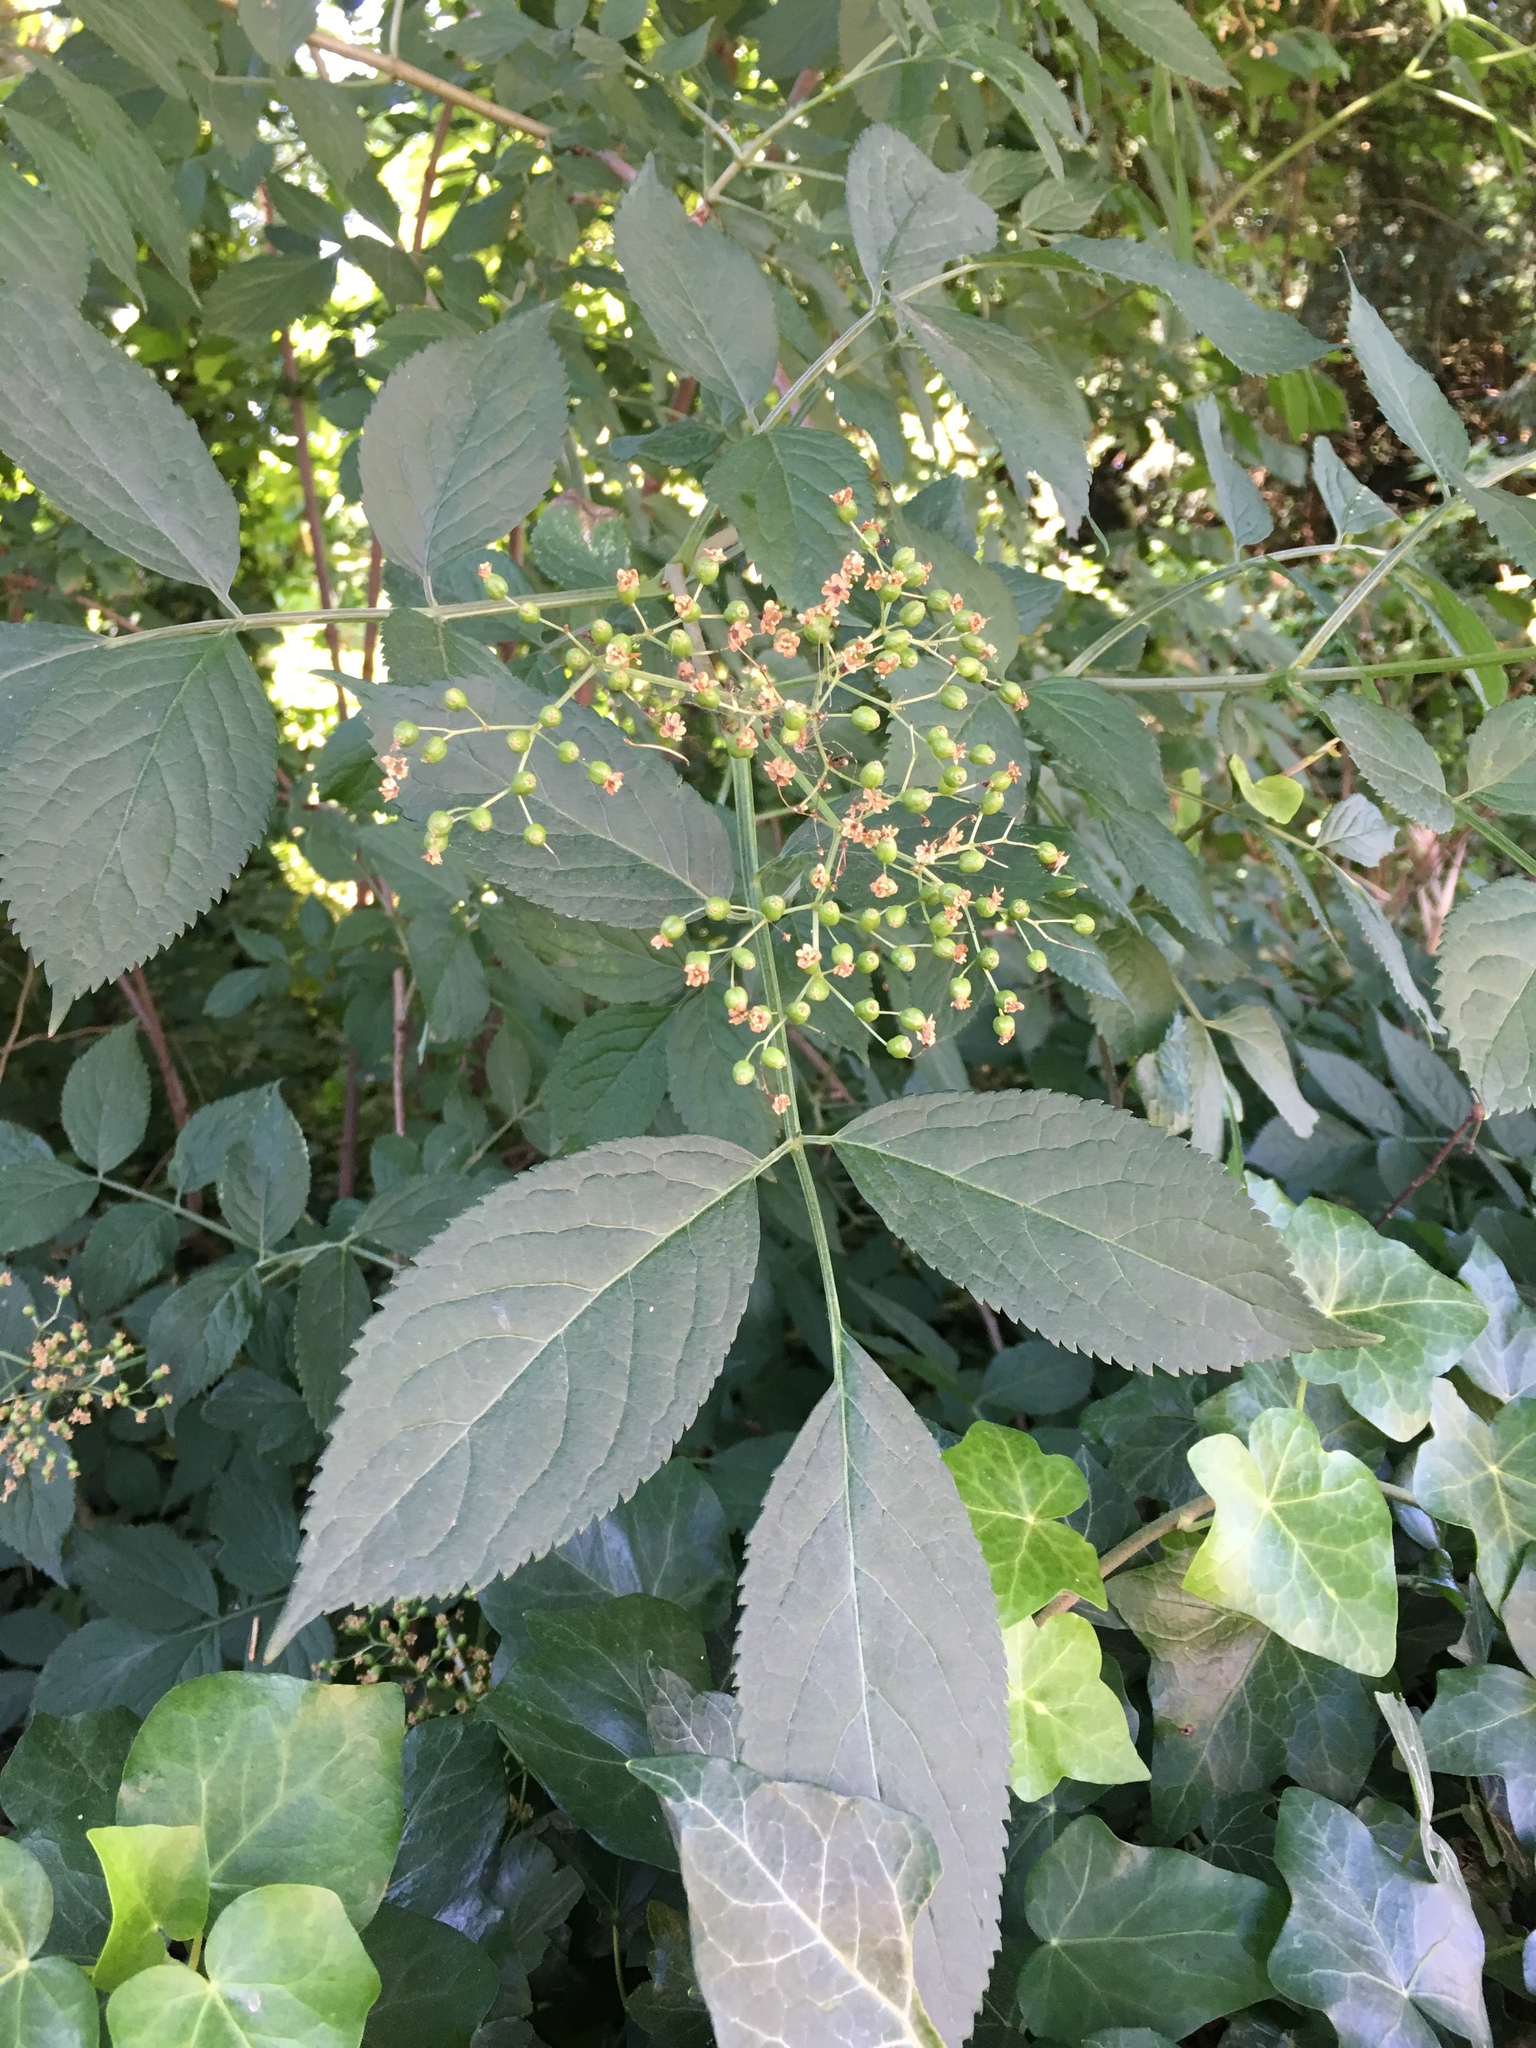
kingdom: Plantae
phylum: Tracheophyta
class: Magnoliopsida
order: Dipsacales
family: Viburnaceae
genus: Sambucus
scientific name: Sambucus nigra
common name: Elder
